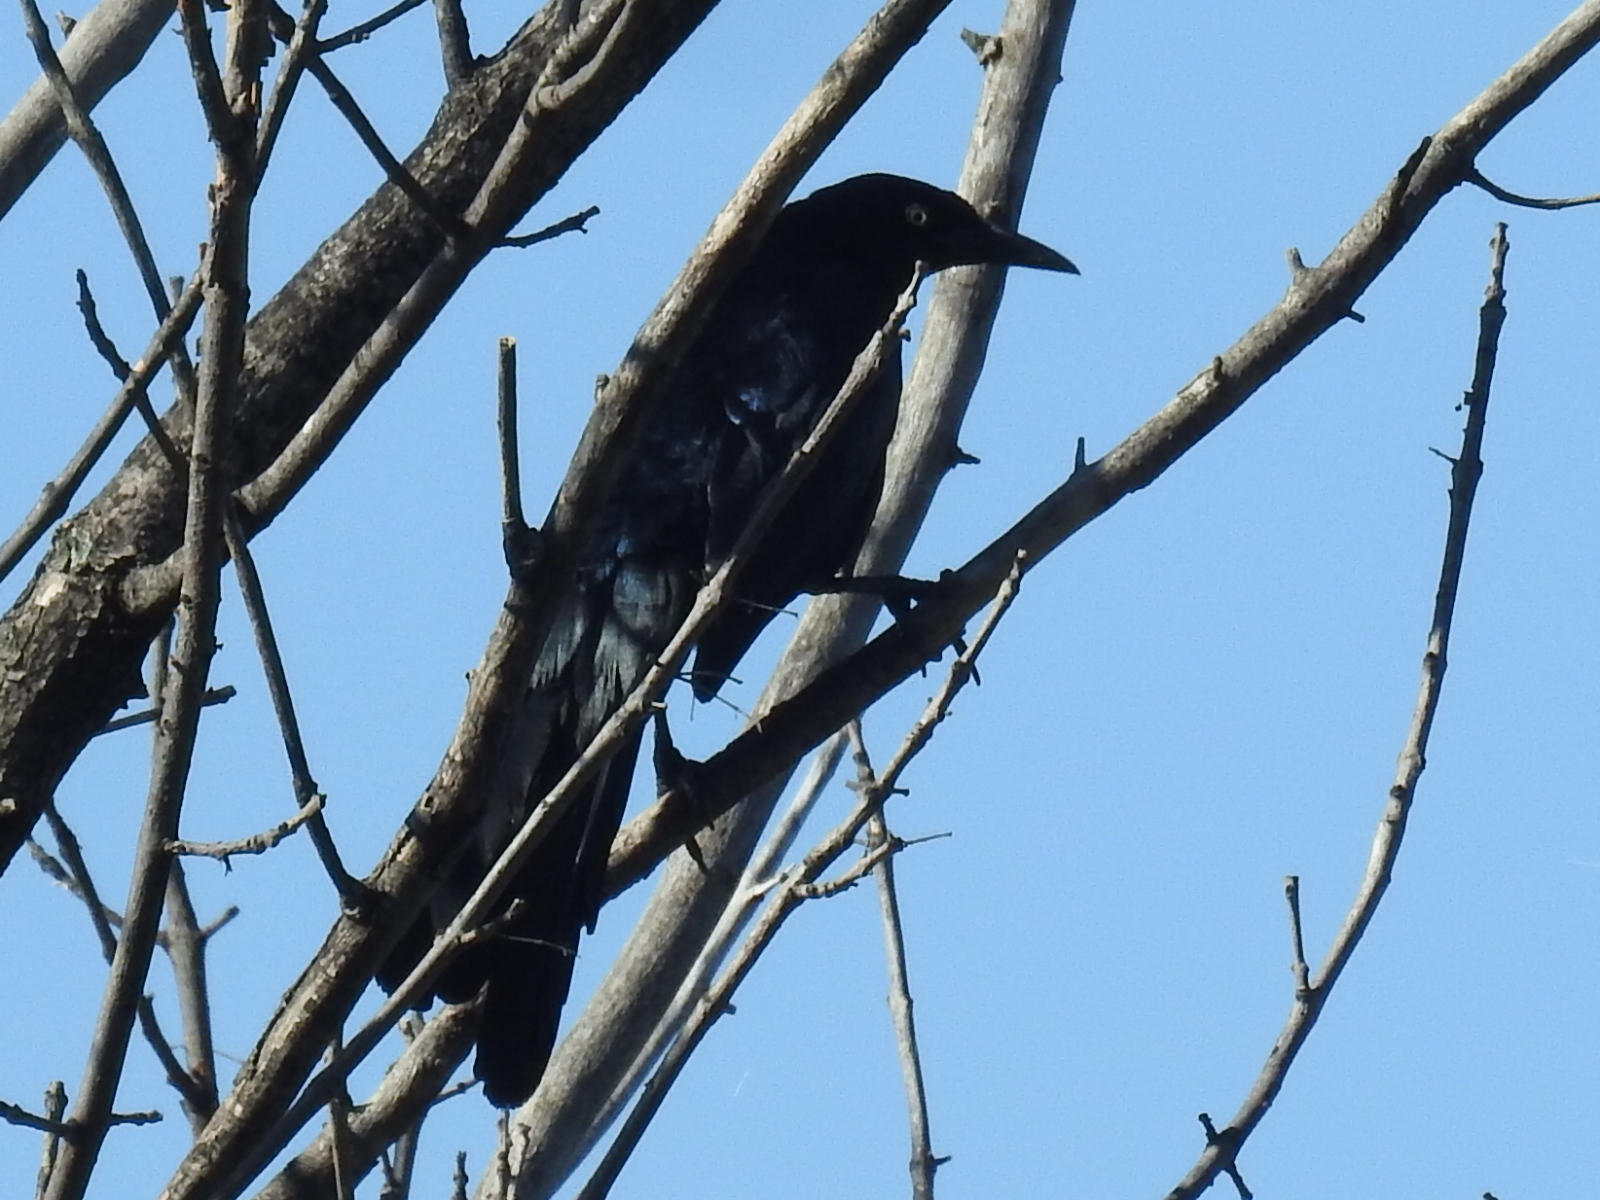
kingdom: Animalia
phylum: Chordata
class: Aves
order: Passeriformes
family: Icteridae
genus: Quiscalus
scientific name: Quiscalus mexicanus
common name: Great-tailed grackle
